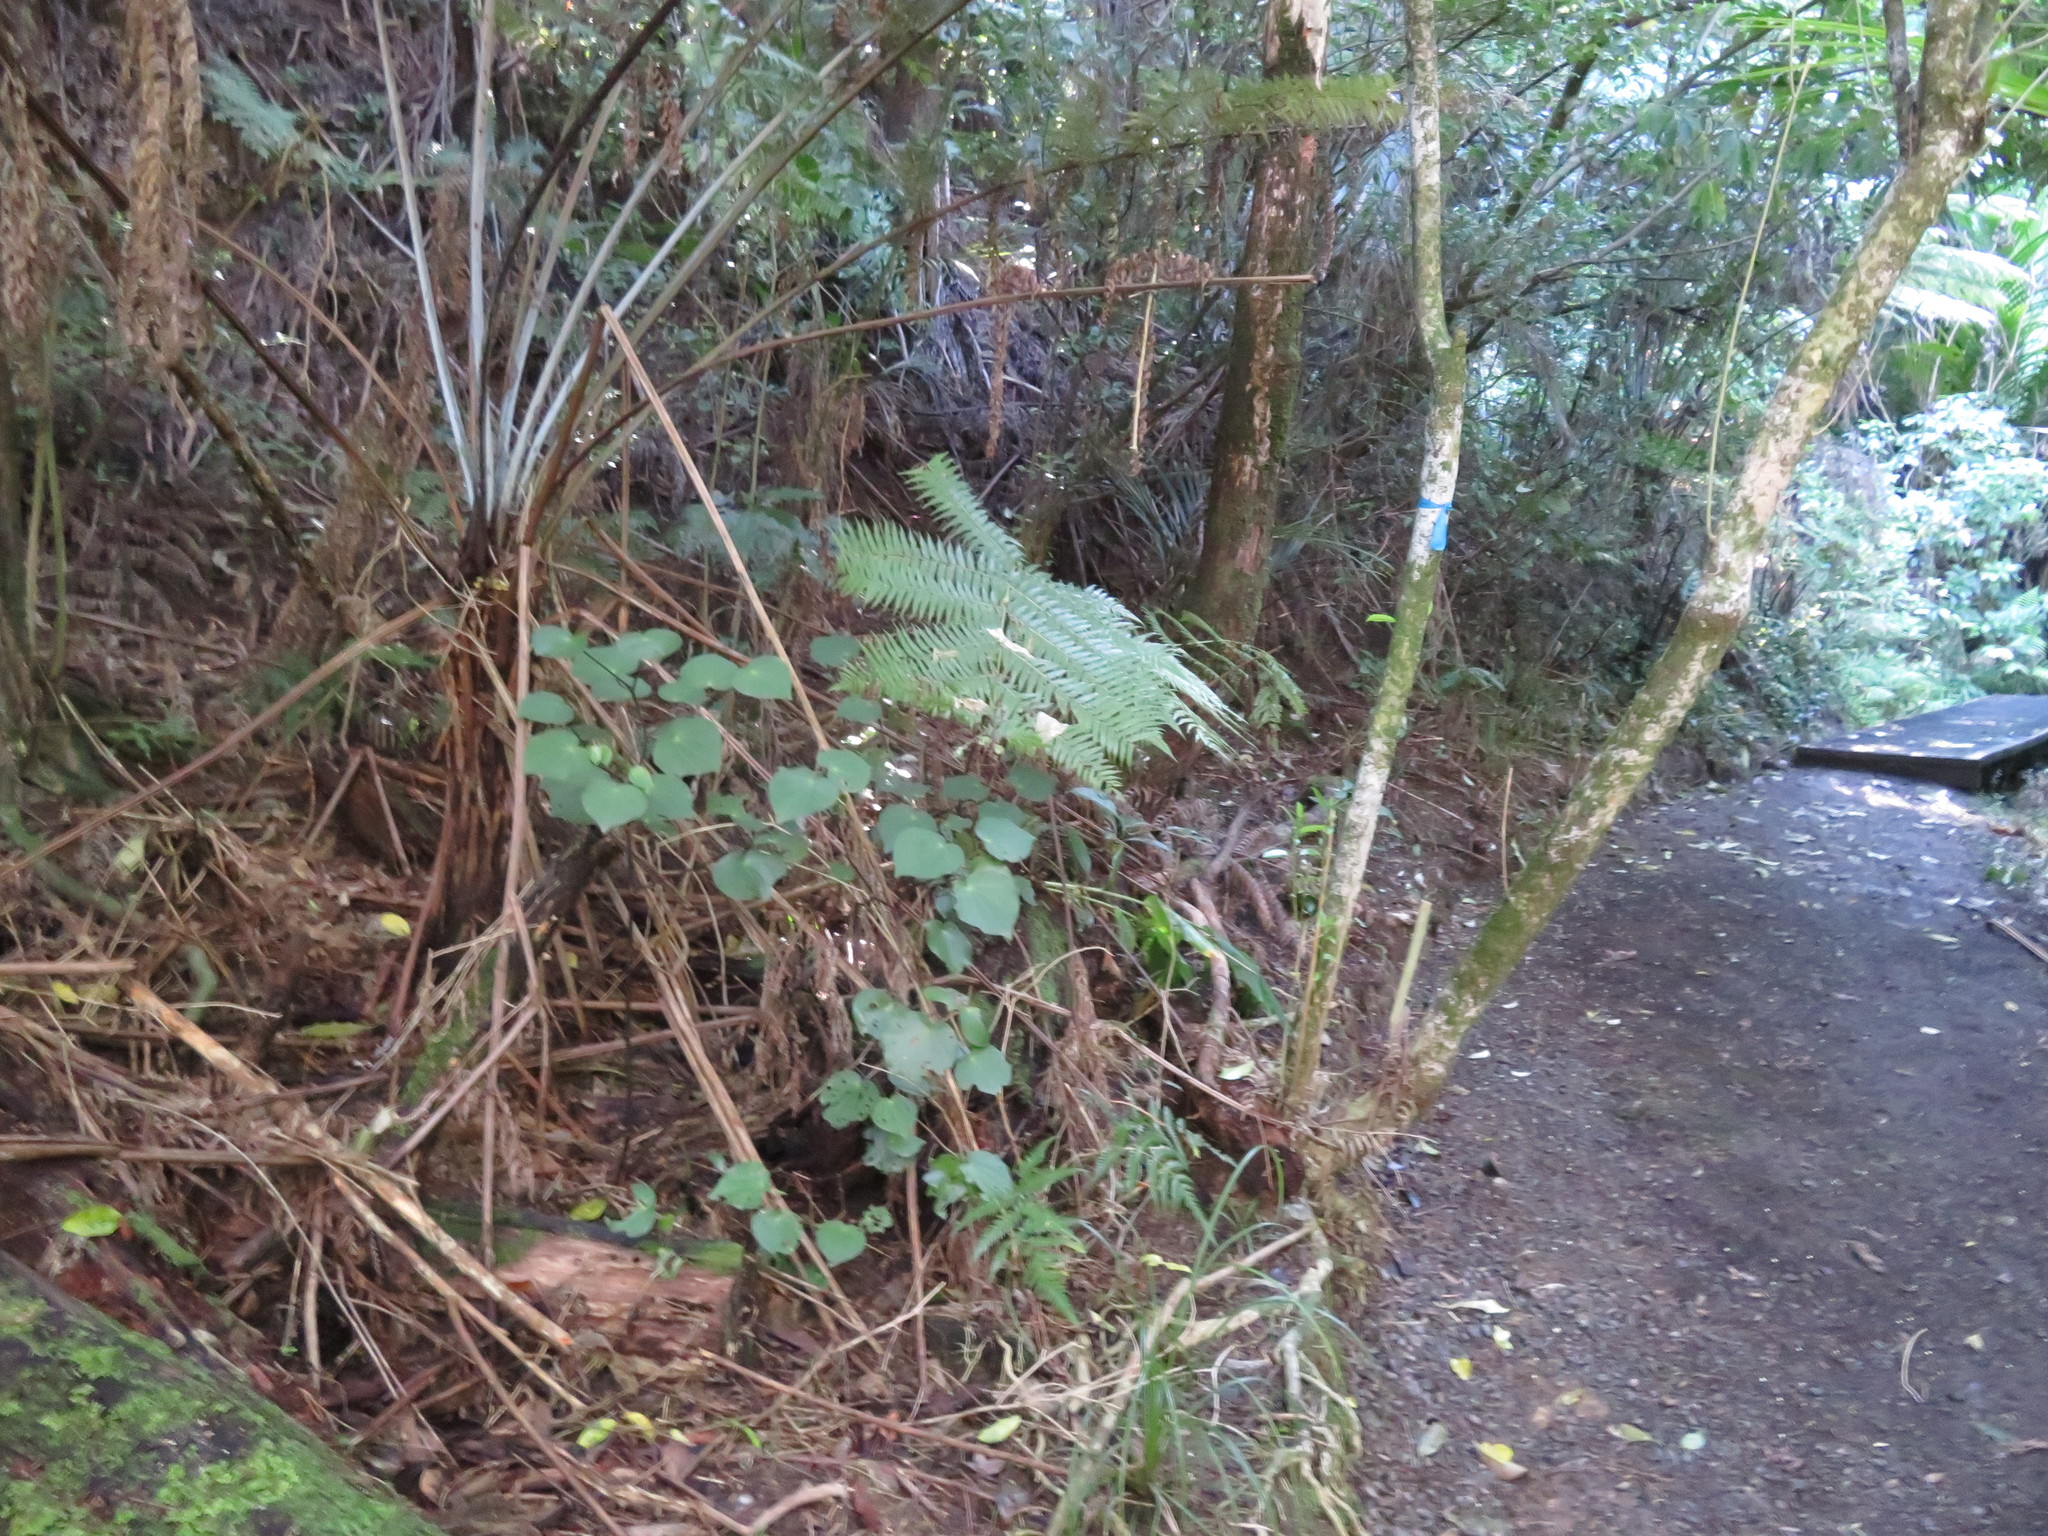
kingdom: Plantae
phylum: Tracheophyta
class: Magnoliopsida
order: Piperales
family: Piperaceae
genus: Macropiper
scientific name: Macropiper excelsum
